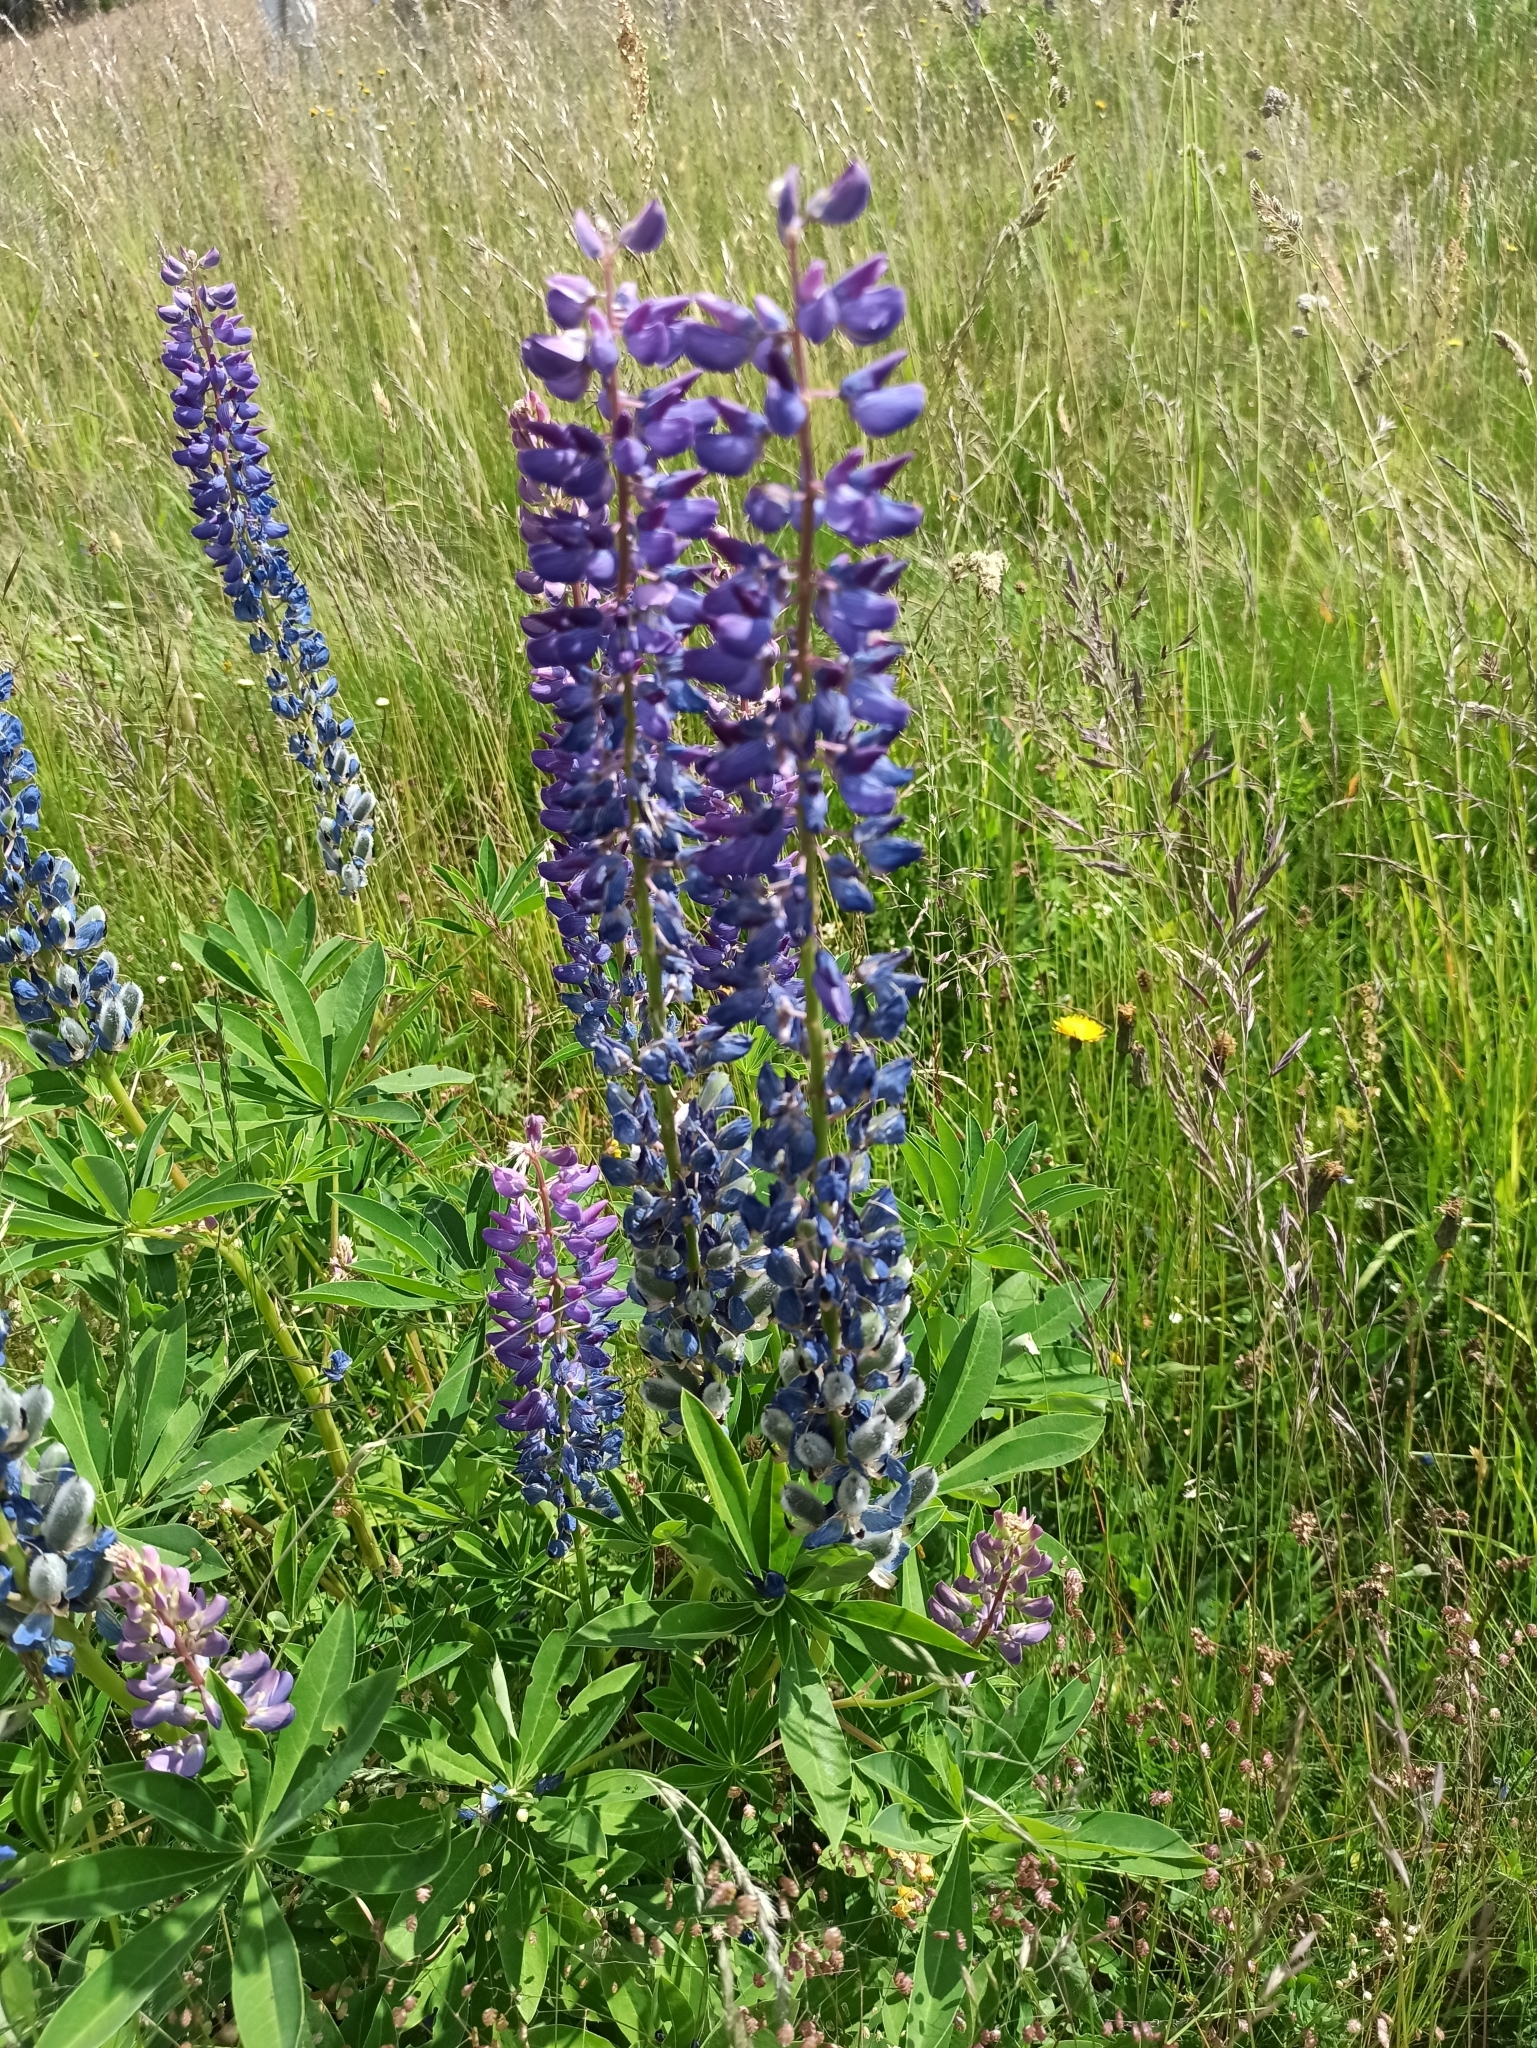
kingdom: Plantae
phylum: Tracheophyta
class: Magnoliopsida
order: Fabales
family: Fabaceae
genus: Lupinus
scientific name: Lupinus polyphyllus
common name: Garden lupin
